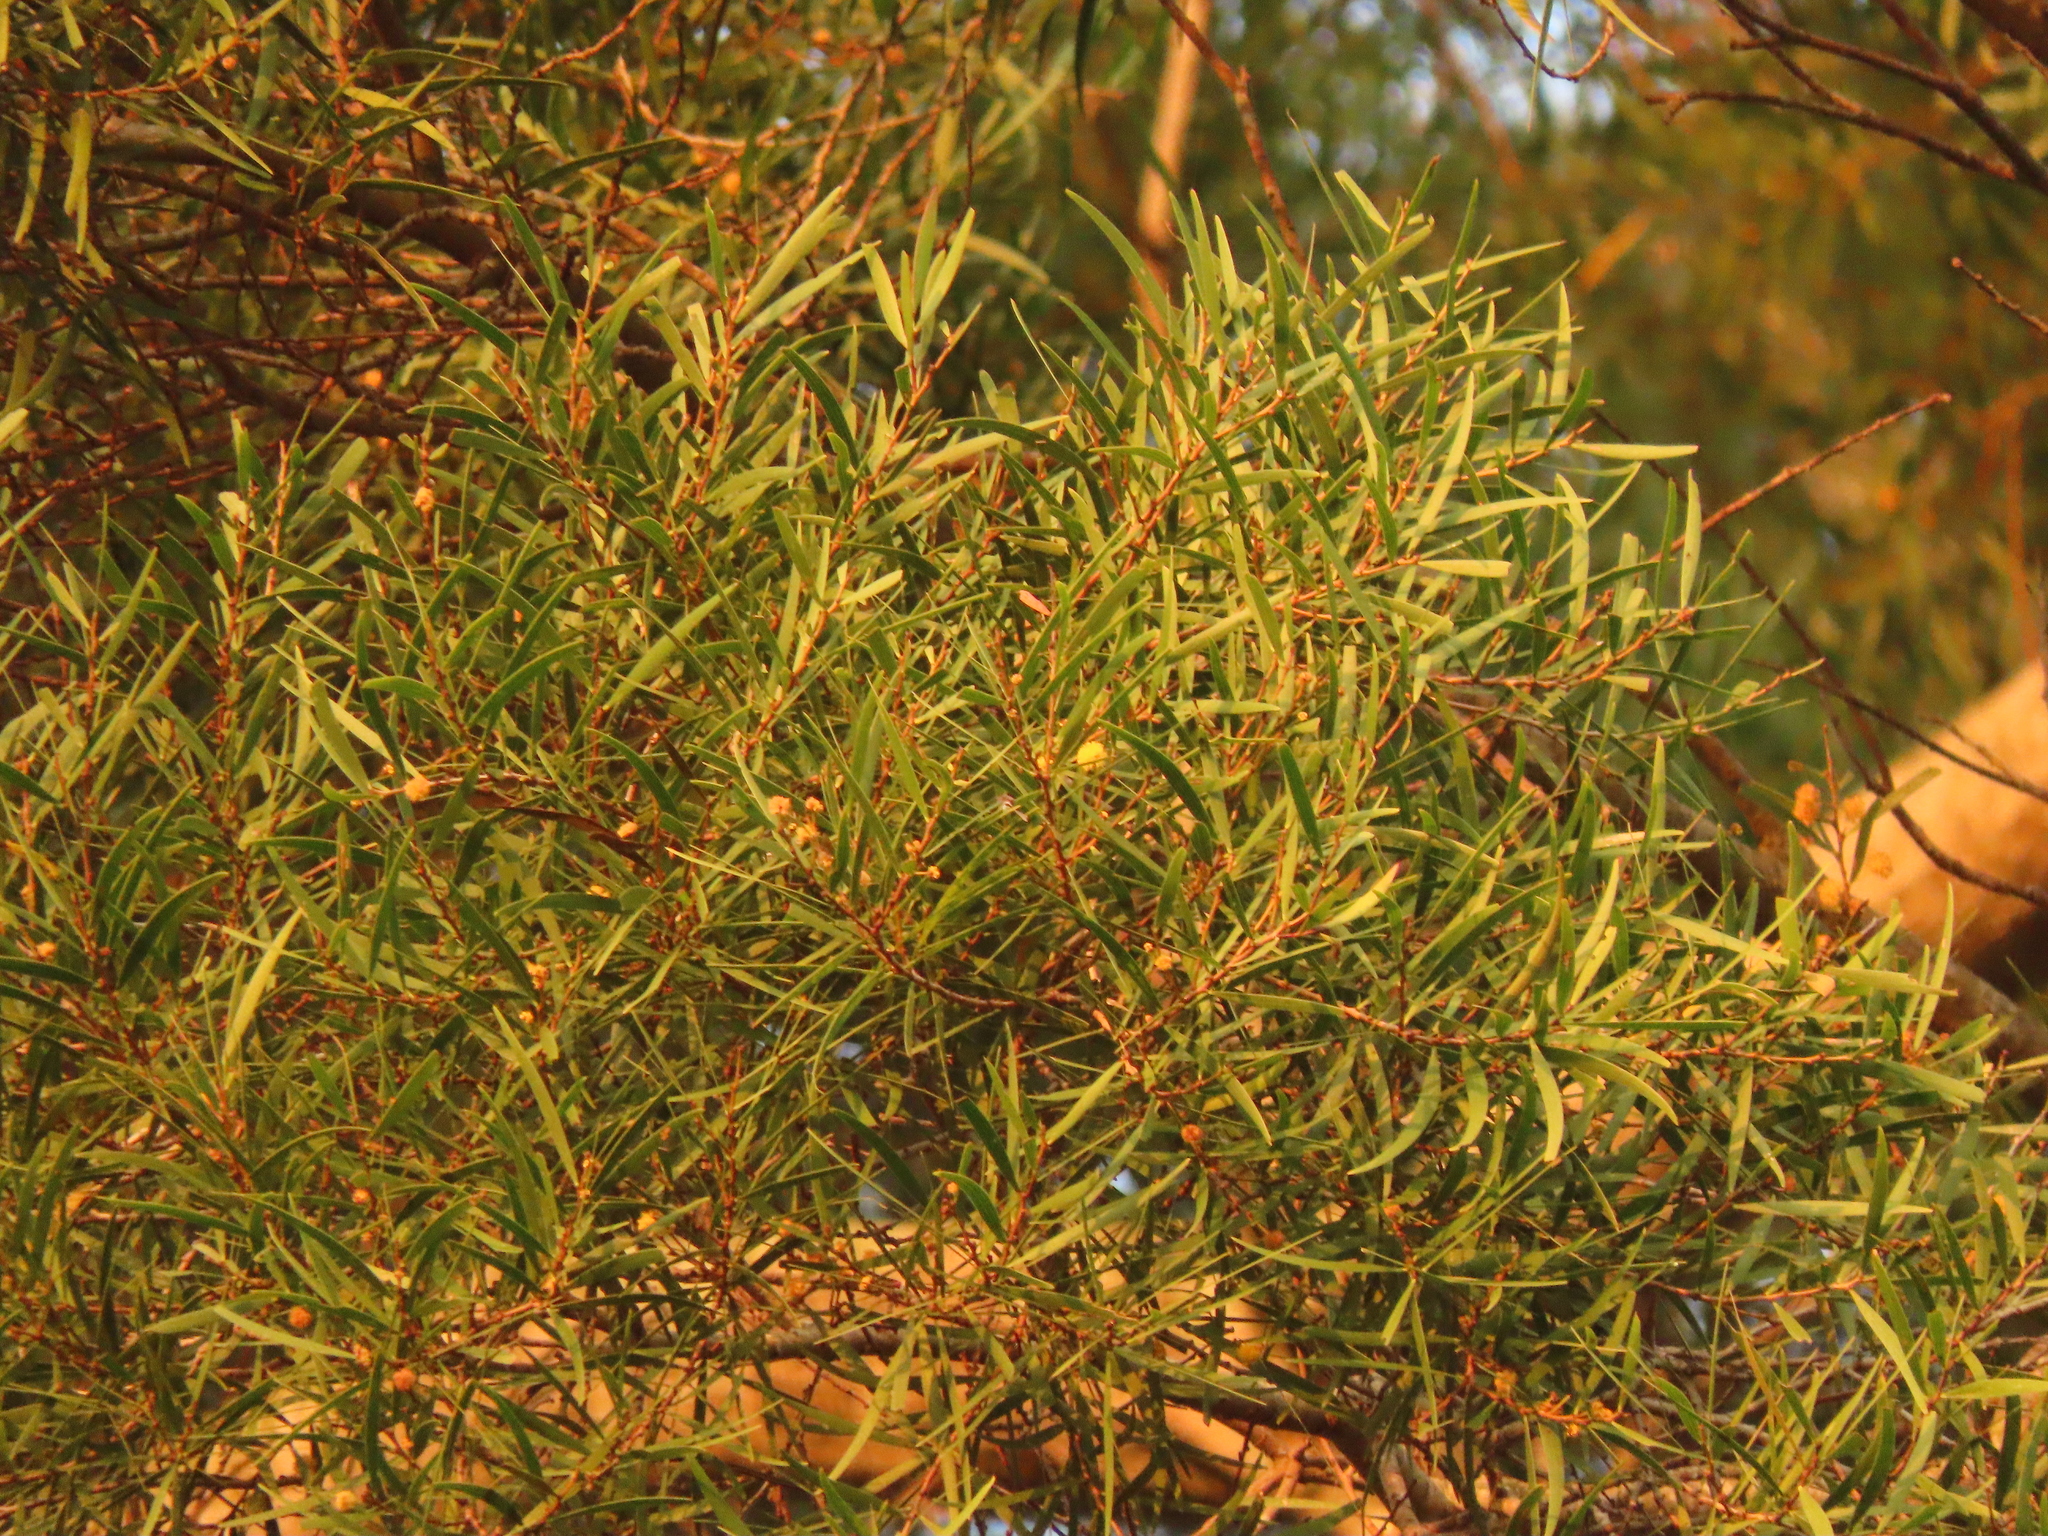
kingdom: Plantae
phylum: Tracheophyta
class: Magnoliopsida
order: Fabales
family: Fabaceae
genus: Acacia
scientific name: Acacia confusa
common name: Formosan koa
